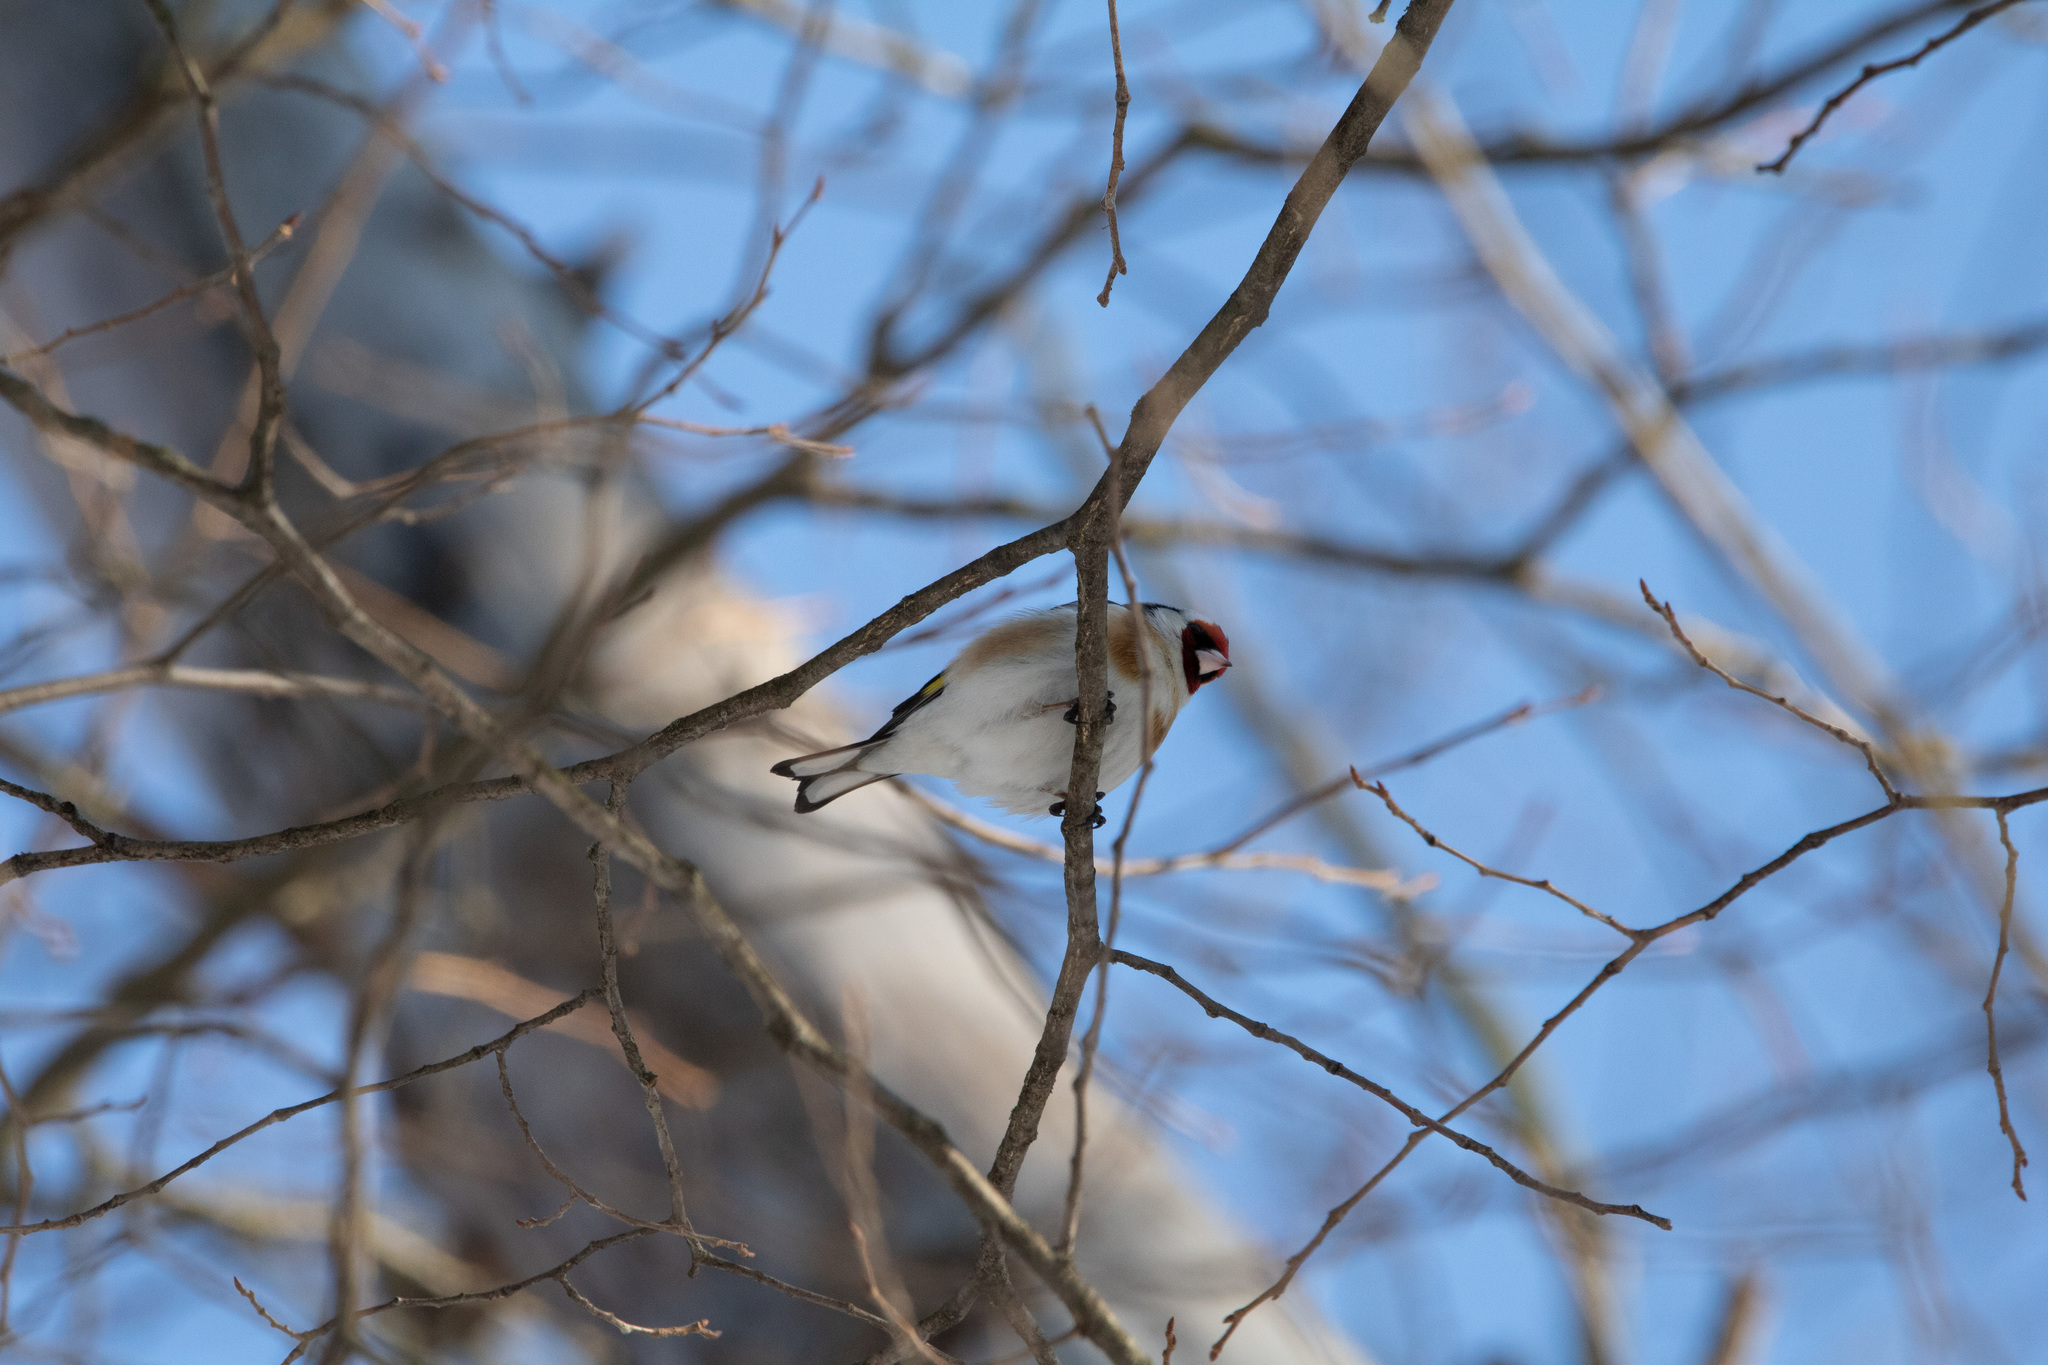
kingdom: Animalia
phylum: Chordata
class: Aves
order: Passeriformes
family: Fringillidae
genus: Carduelis
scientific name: Carduelis carduelis
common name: European goldfinch
